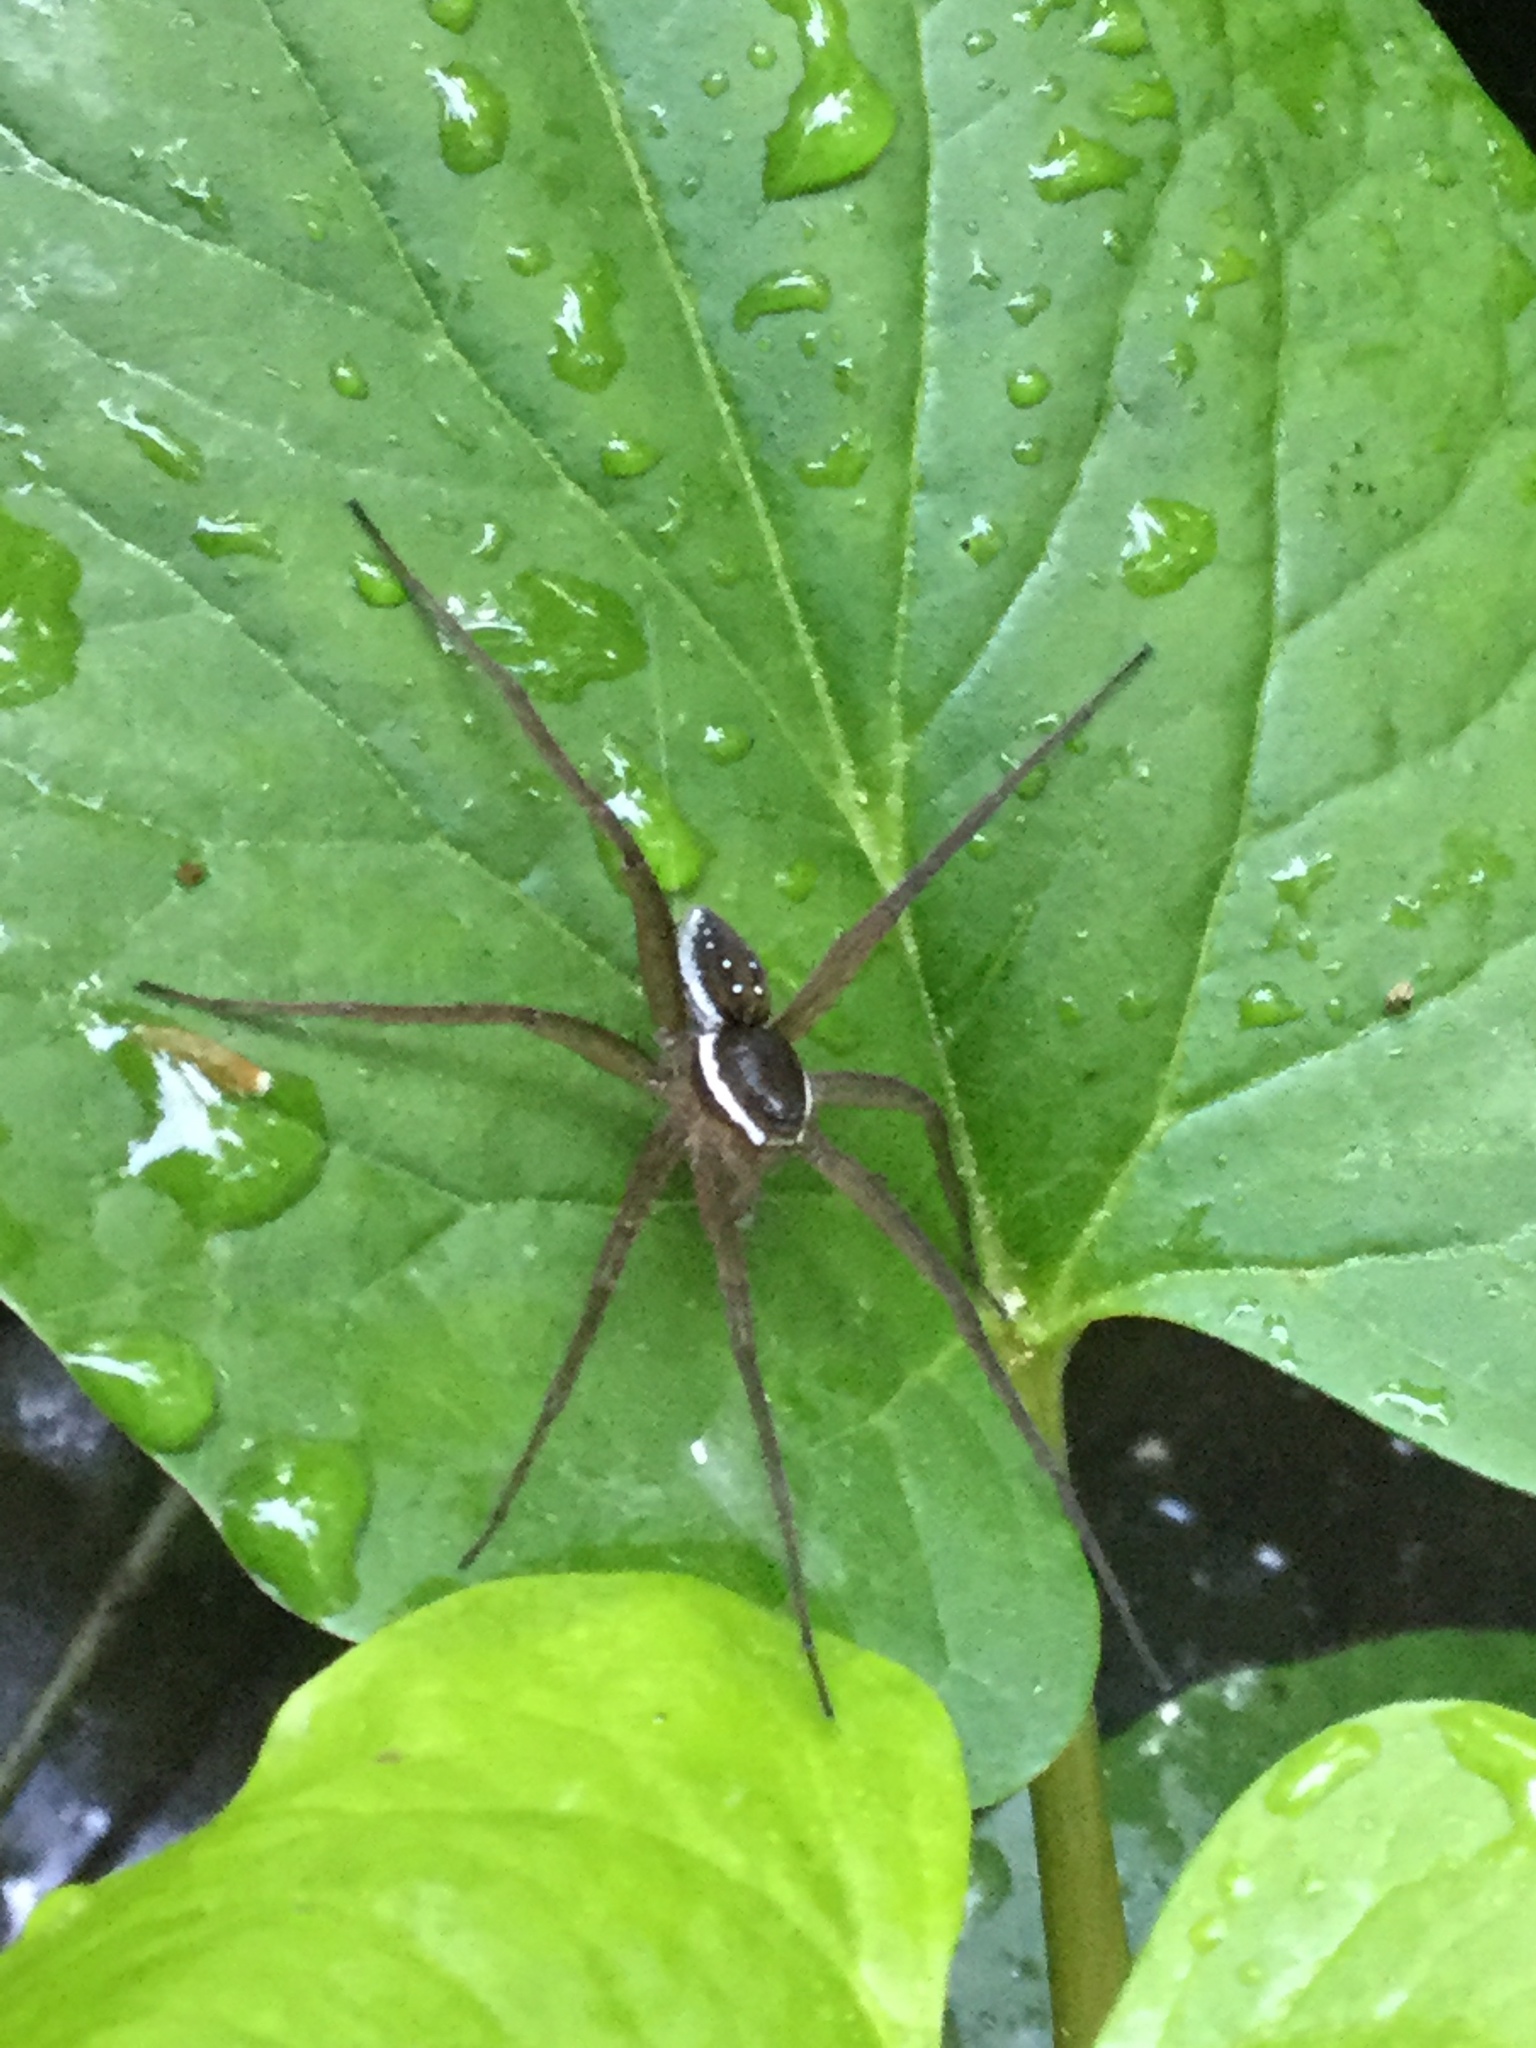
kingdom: Animalia
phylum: Arthropoda
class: Arachnida
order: Araneae
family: Pisauridae
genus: Dolomedes
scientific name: Dolomedes triton
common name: Six-spotted fishing spider
